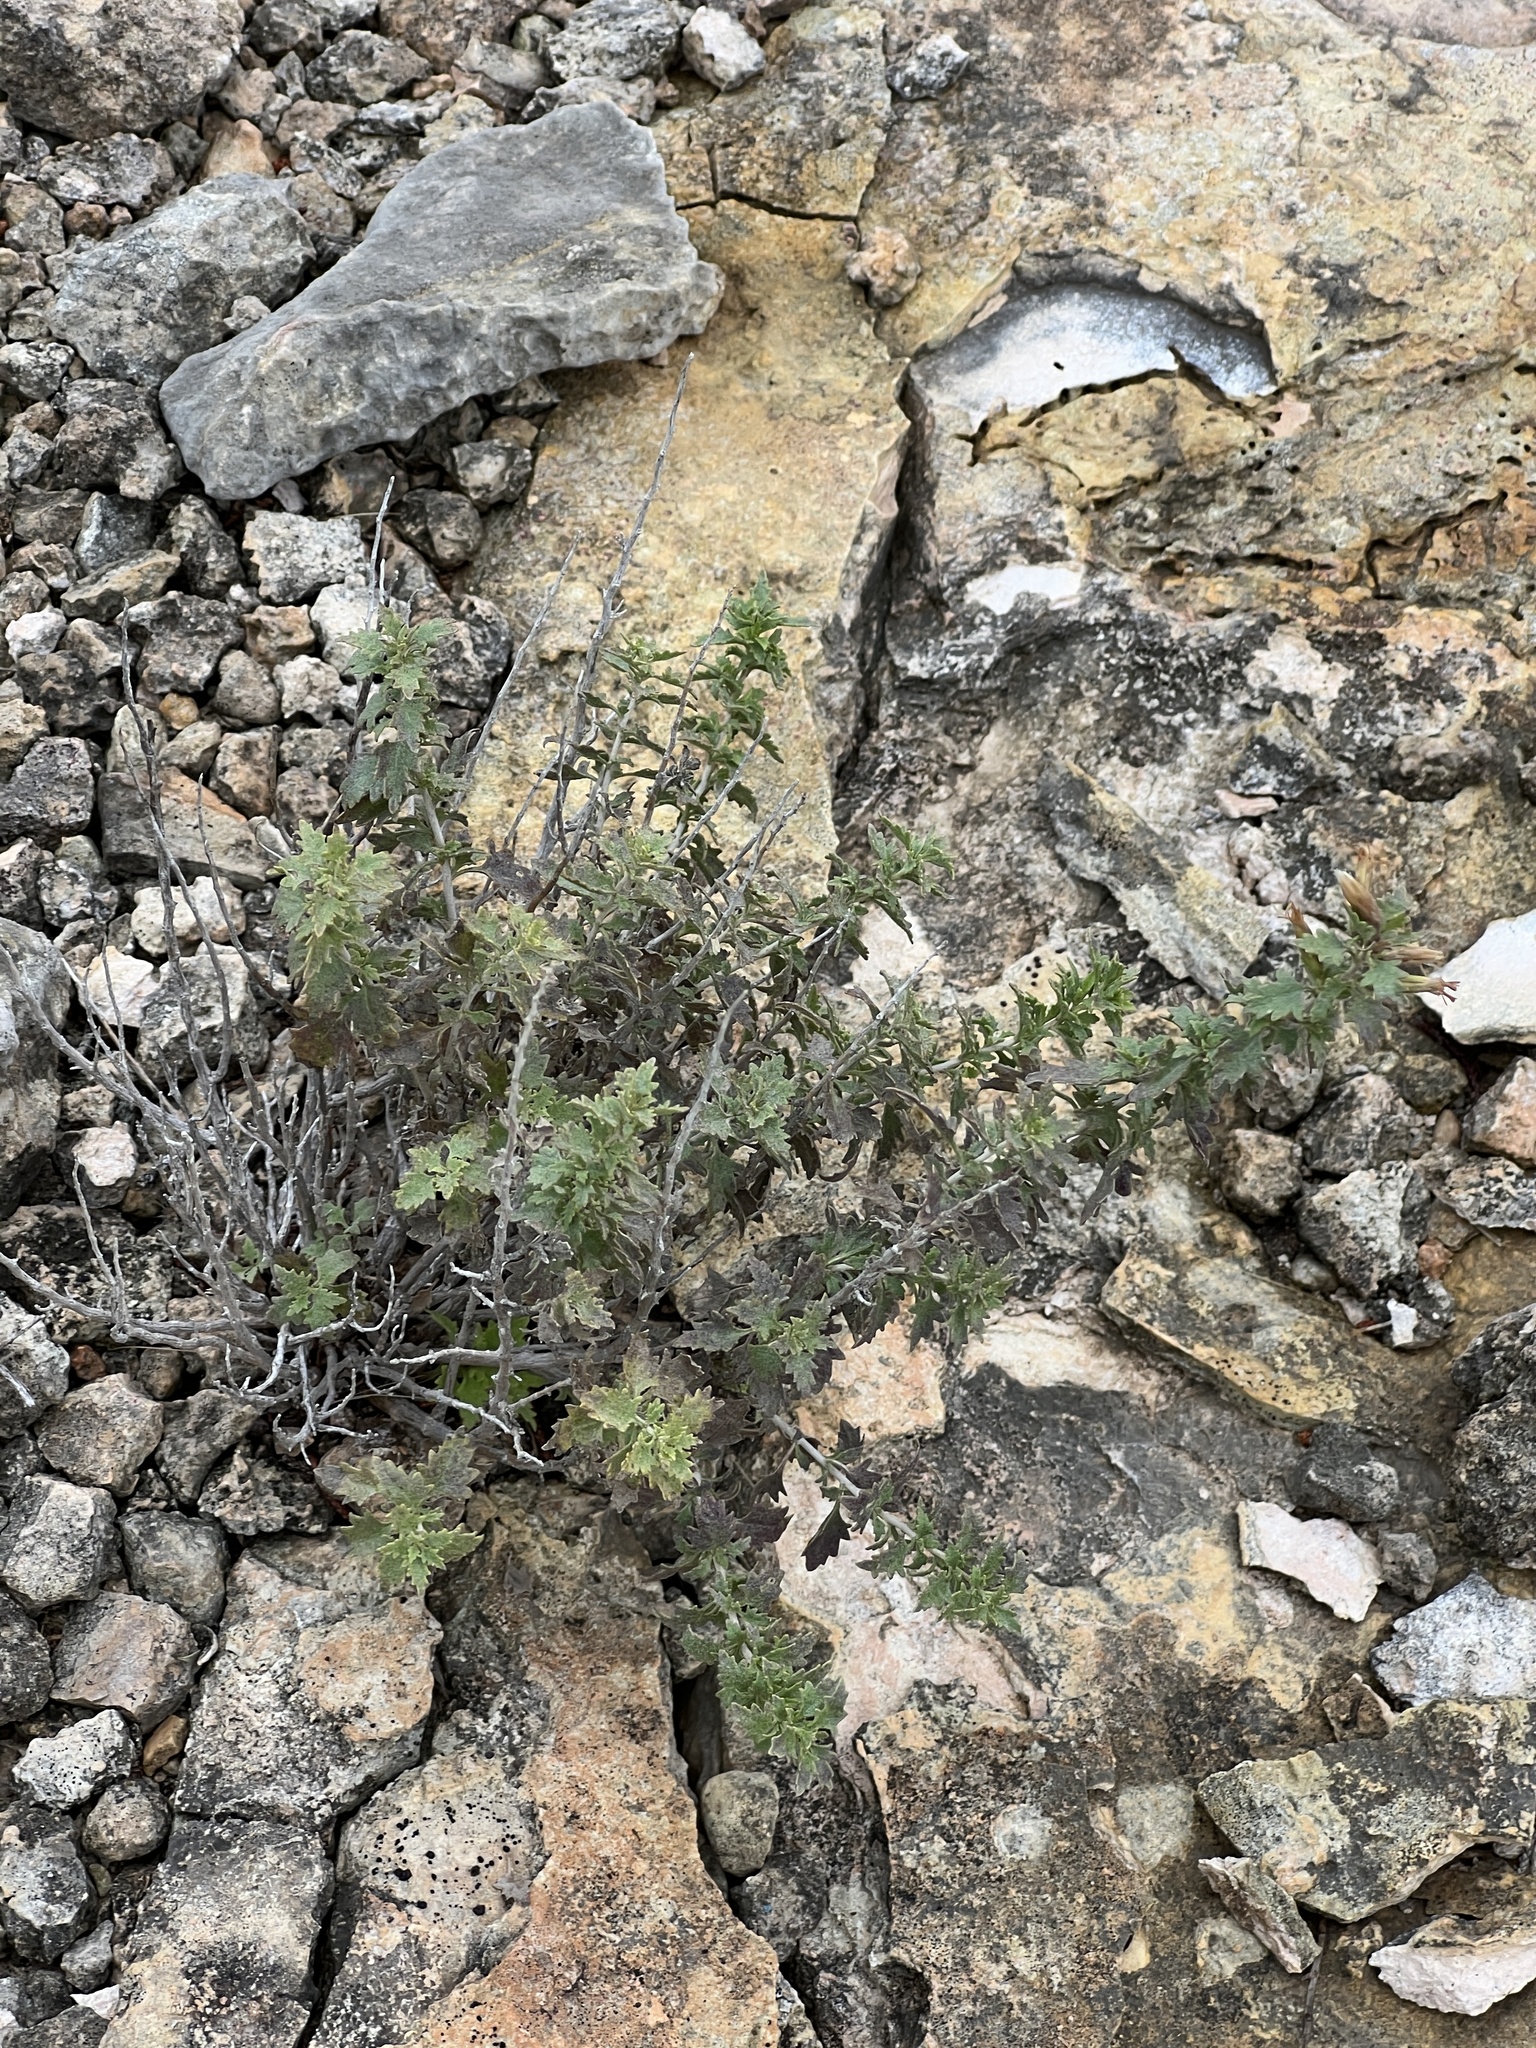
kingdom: Plantae
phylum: Tracheophyta
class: Magnoliopsida
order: Asterales
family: Asteraceae
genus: Brickellia
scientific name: Brickellia laciniata
